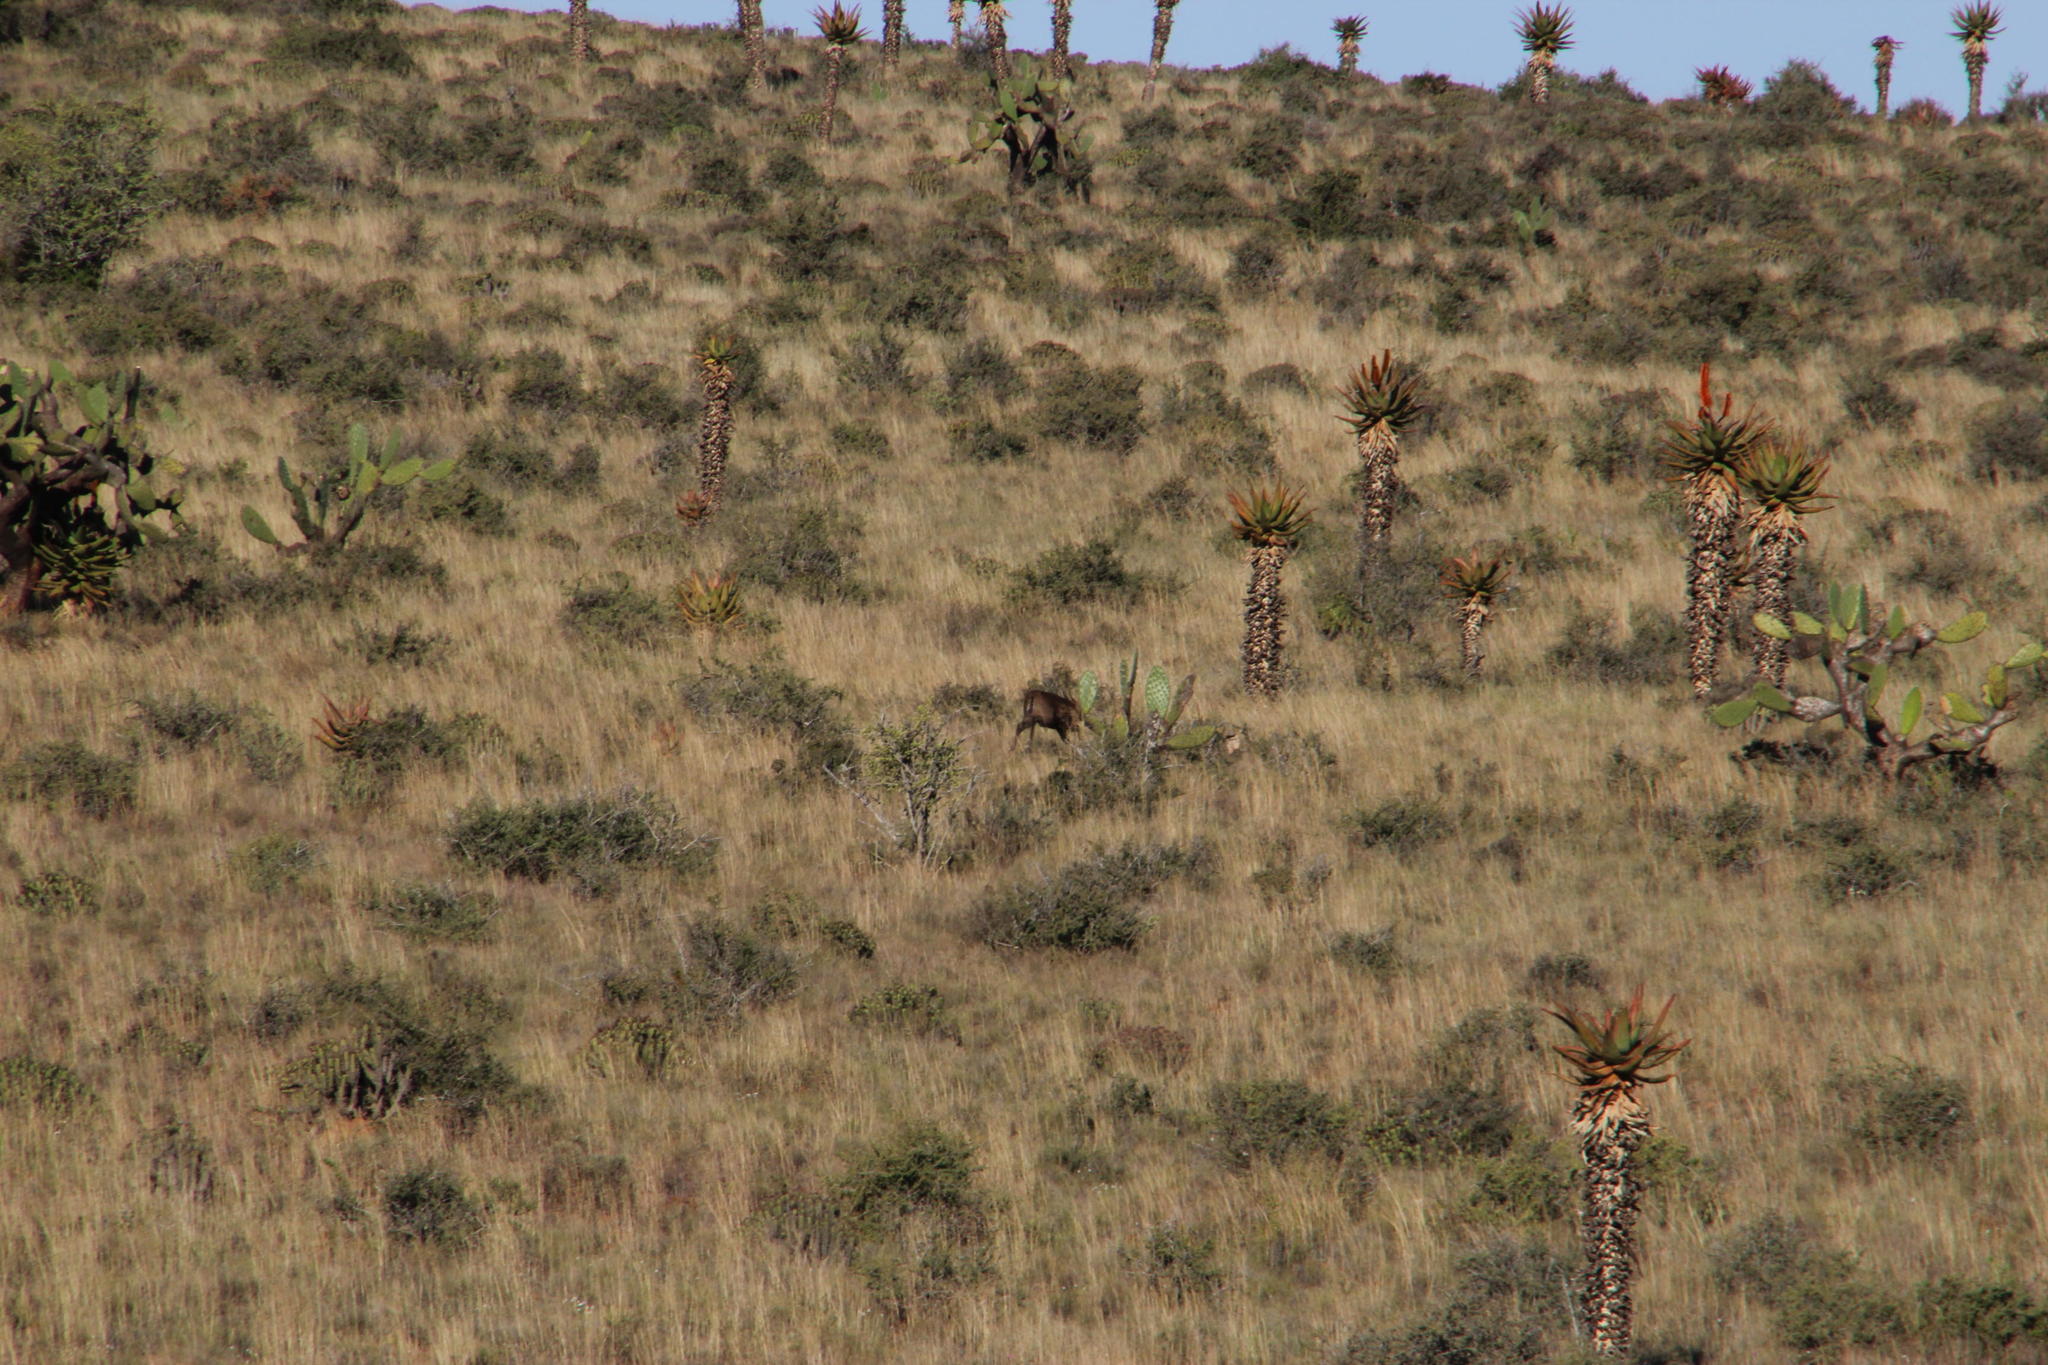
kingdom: Animalia
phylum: Chordata
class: Mammalia
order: Artiodactyla
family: Bovidae
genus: Sylvicapra
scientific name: Sylvicapra grimmia
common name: Bush duiker
